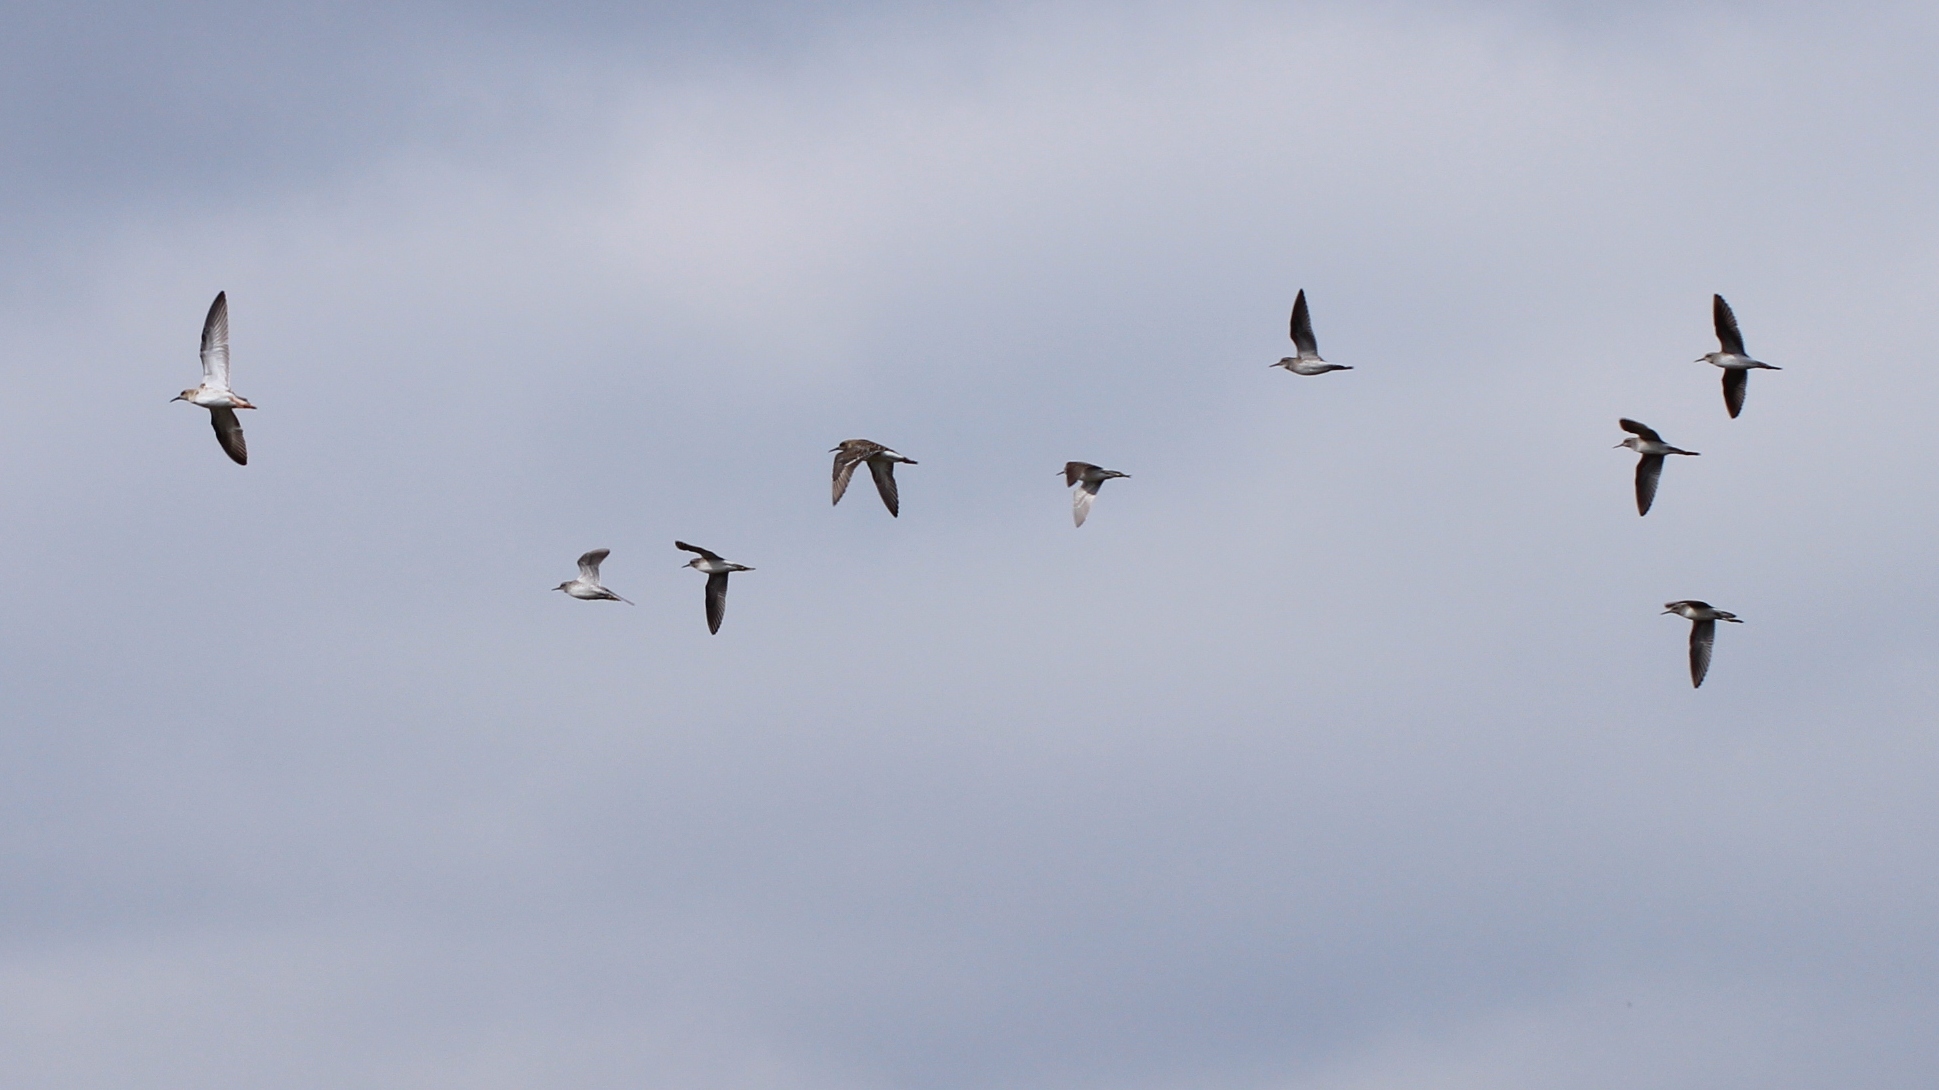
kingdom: Animalia
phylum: Chordata
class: Aves
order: Charadriiformes
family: Scolopacidae
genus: Calidris
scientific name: Calidris pugnax
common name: Ruff
